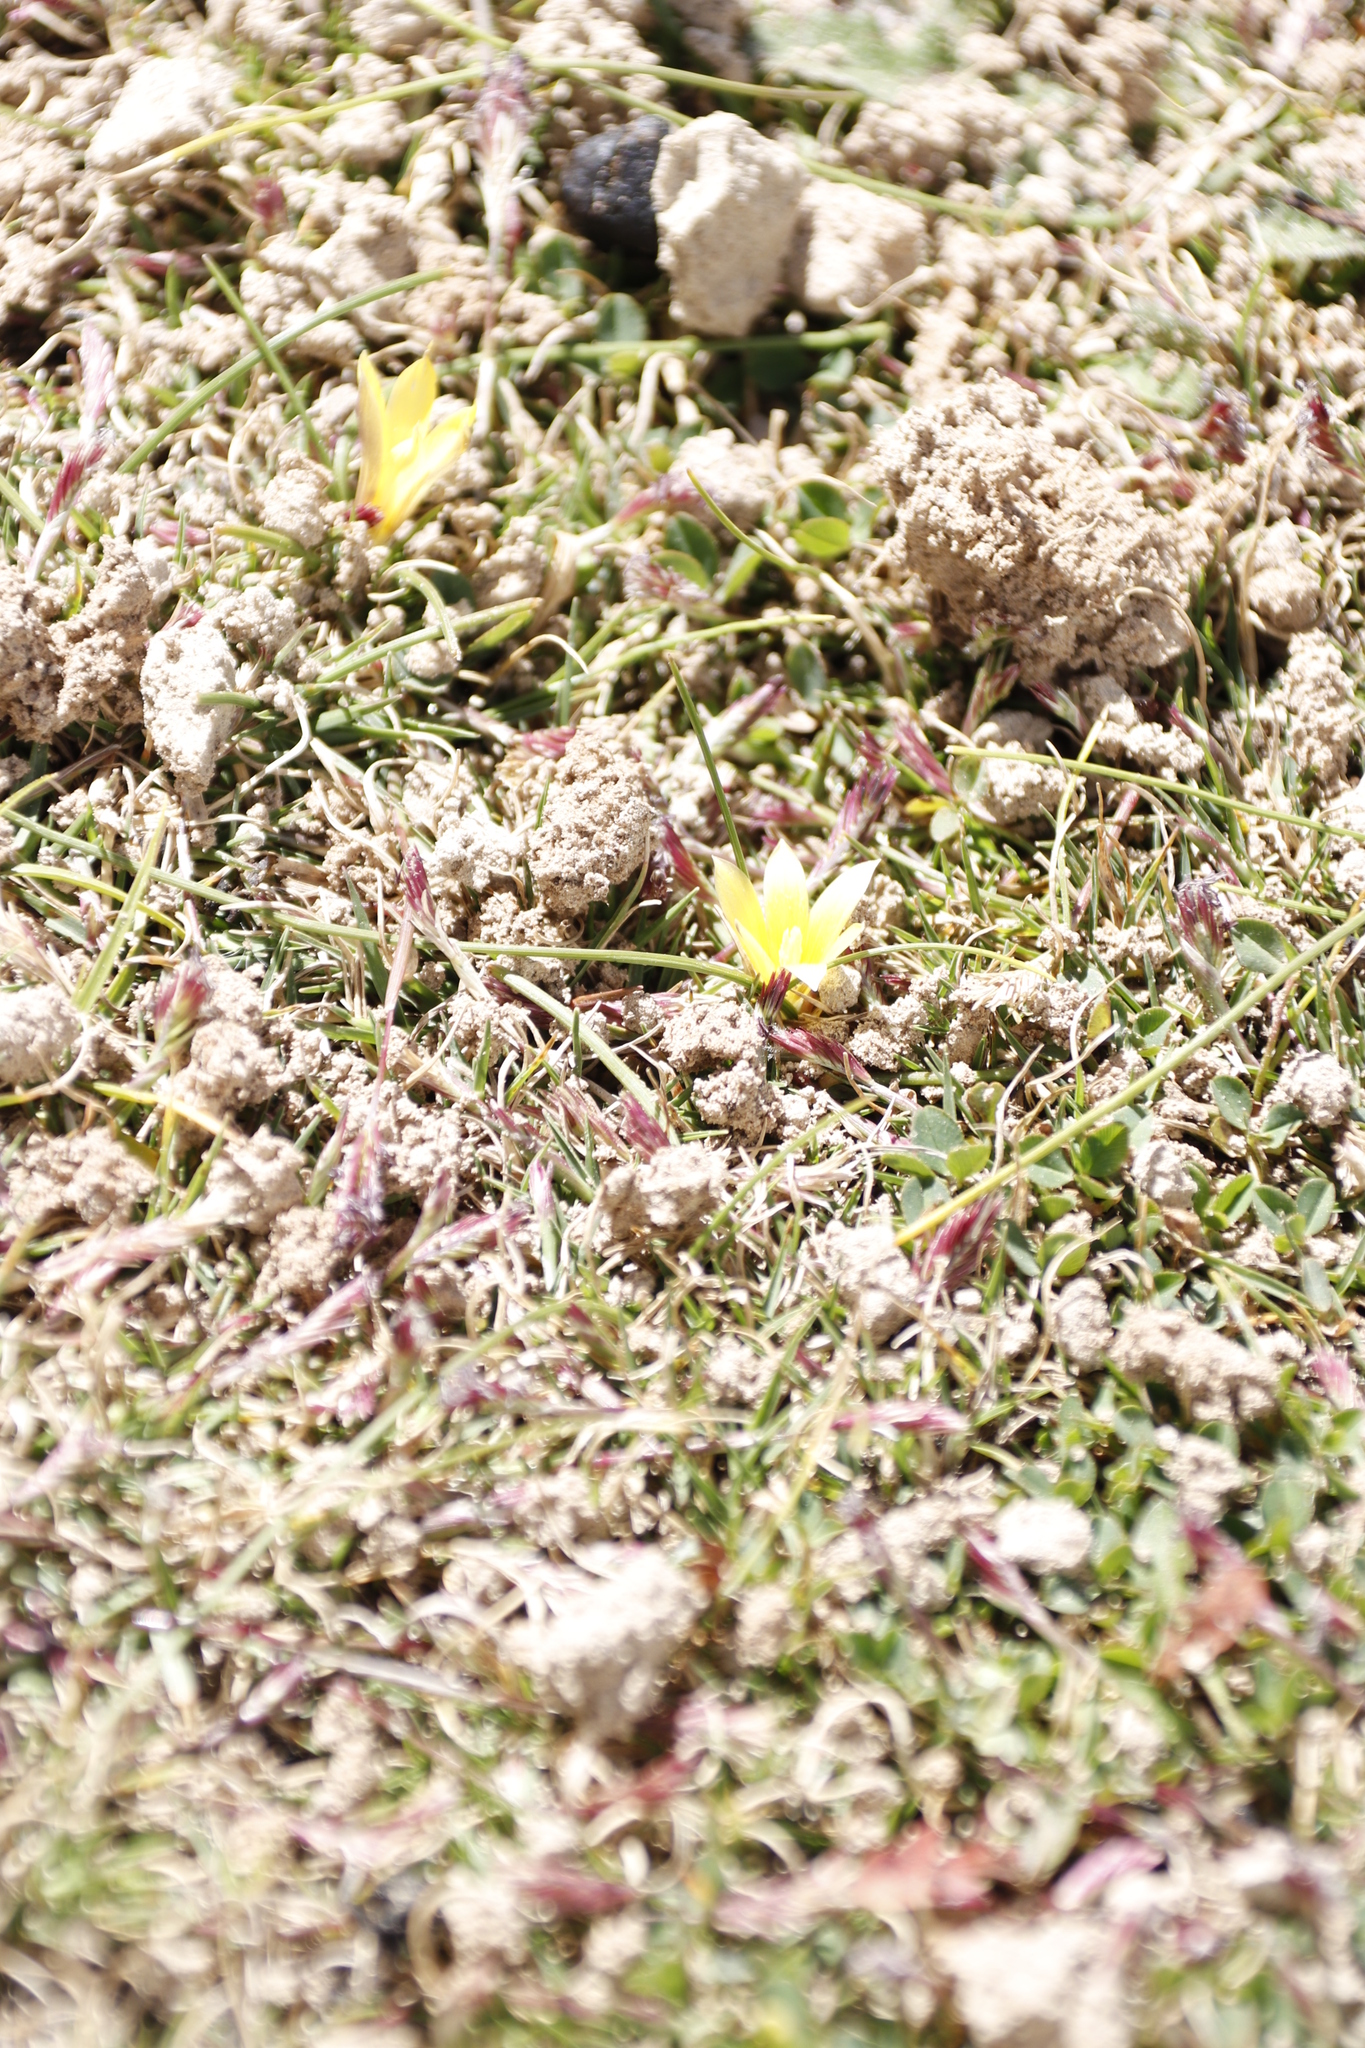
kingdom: Plantae
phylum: Tracheophyta
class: Liliopsida
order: Asparagales
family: Iridaceae
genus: Romulea
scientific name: Romulea macowanii
